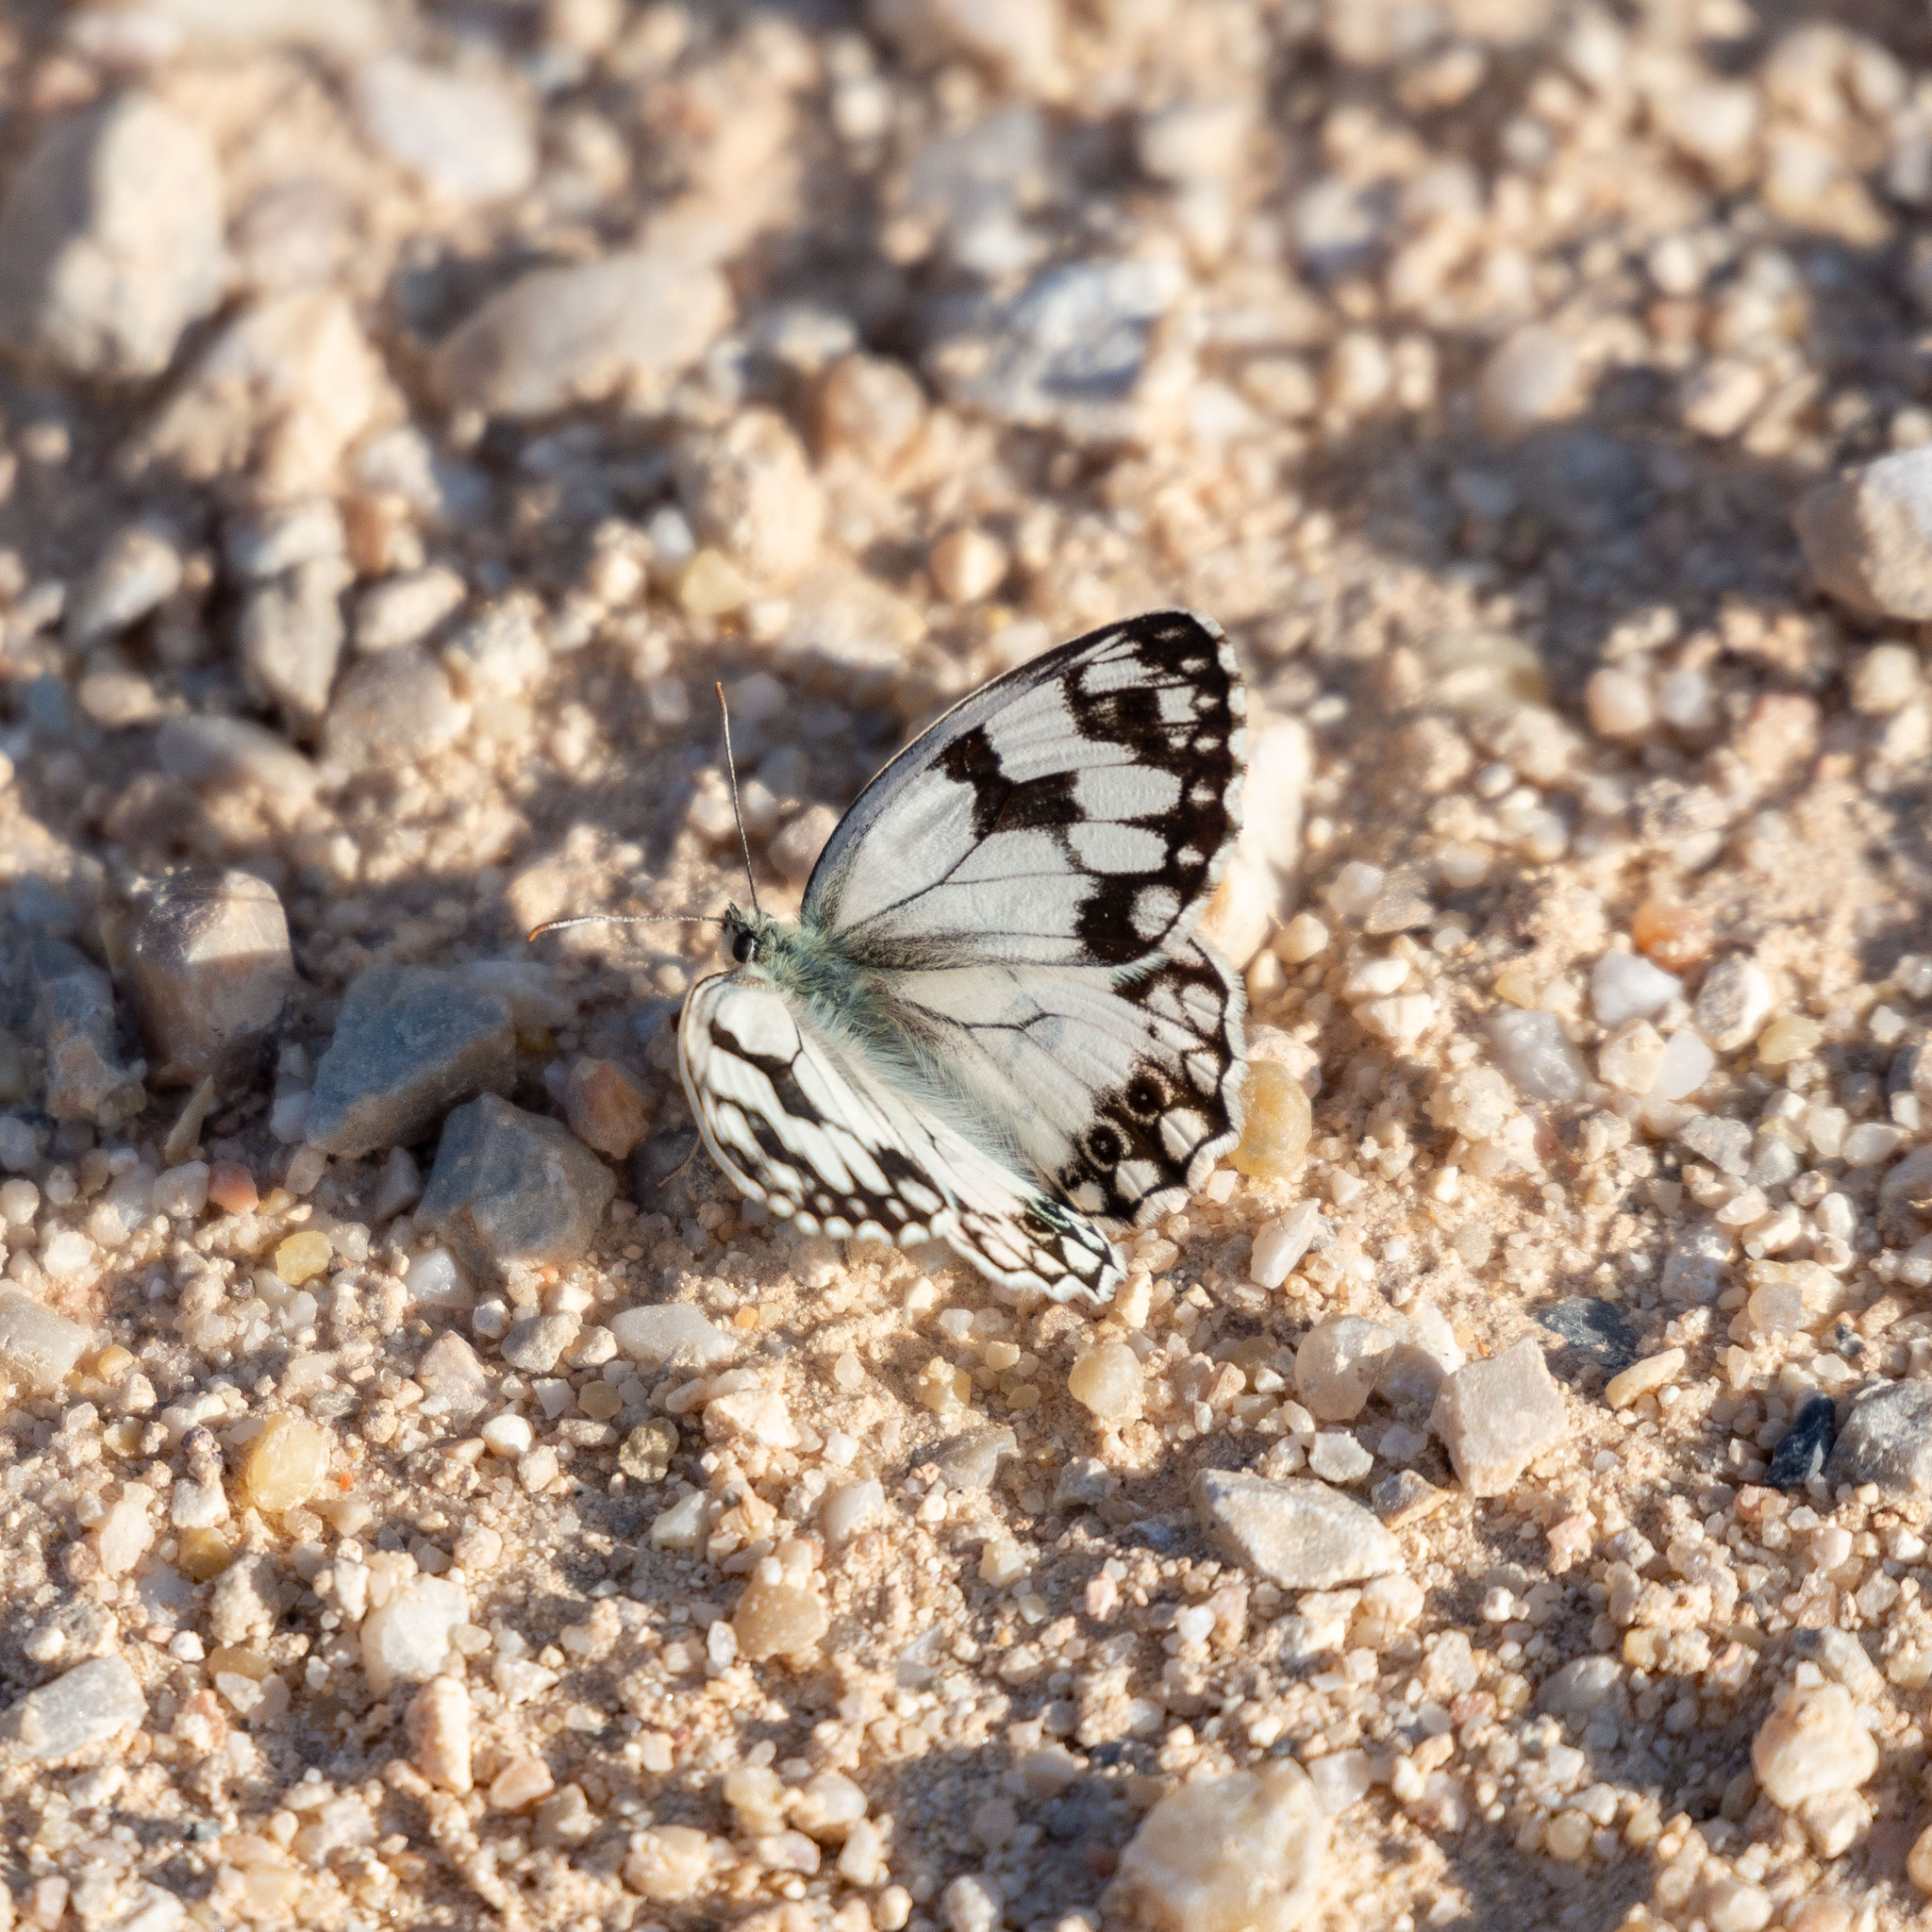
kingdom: Animalia
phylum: Arthropoda
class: Insecta
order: Lepidoptera
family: Nymphalidae
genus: Melanargia
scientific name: Melanargia lachesis
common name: Iberian marbled white
